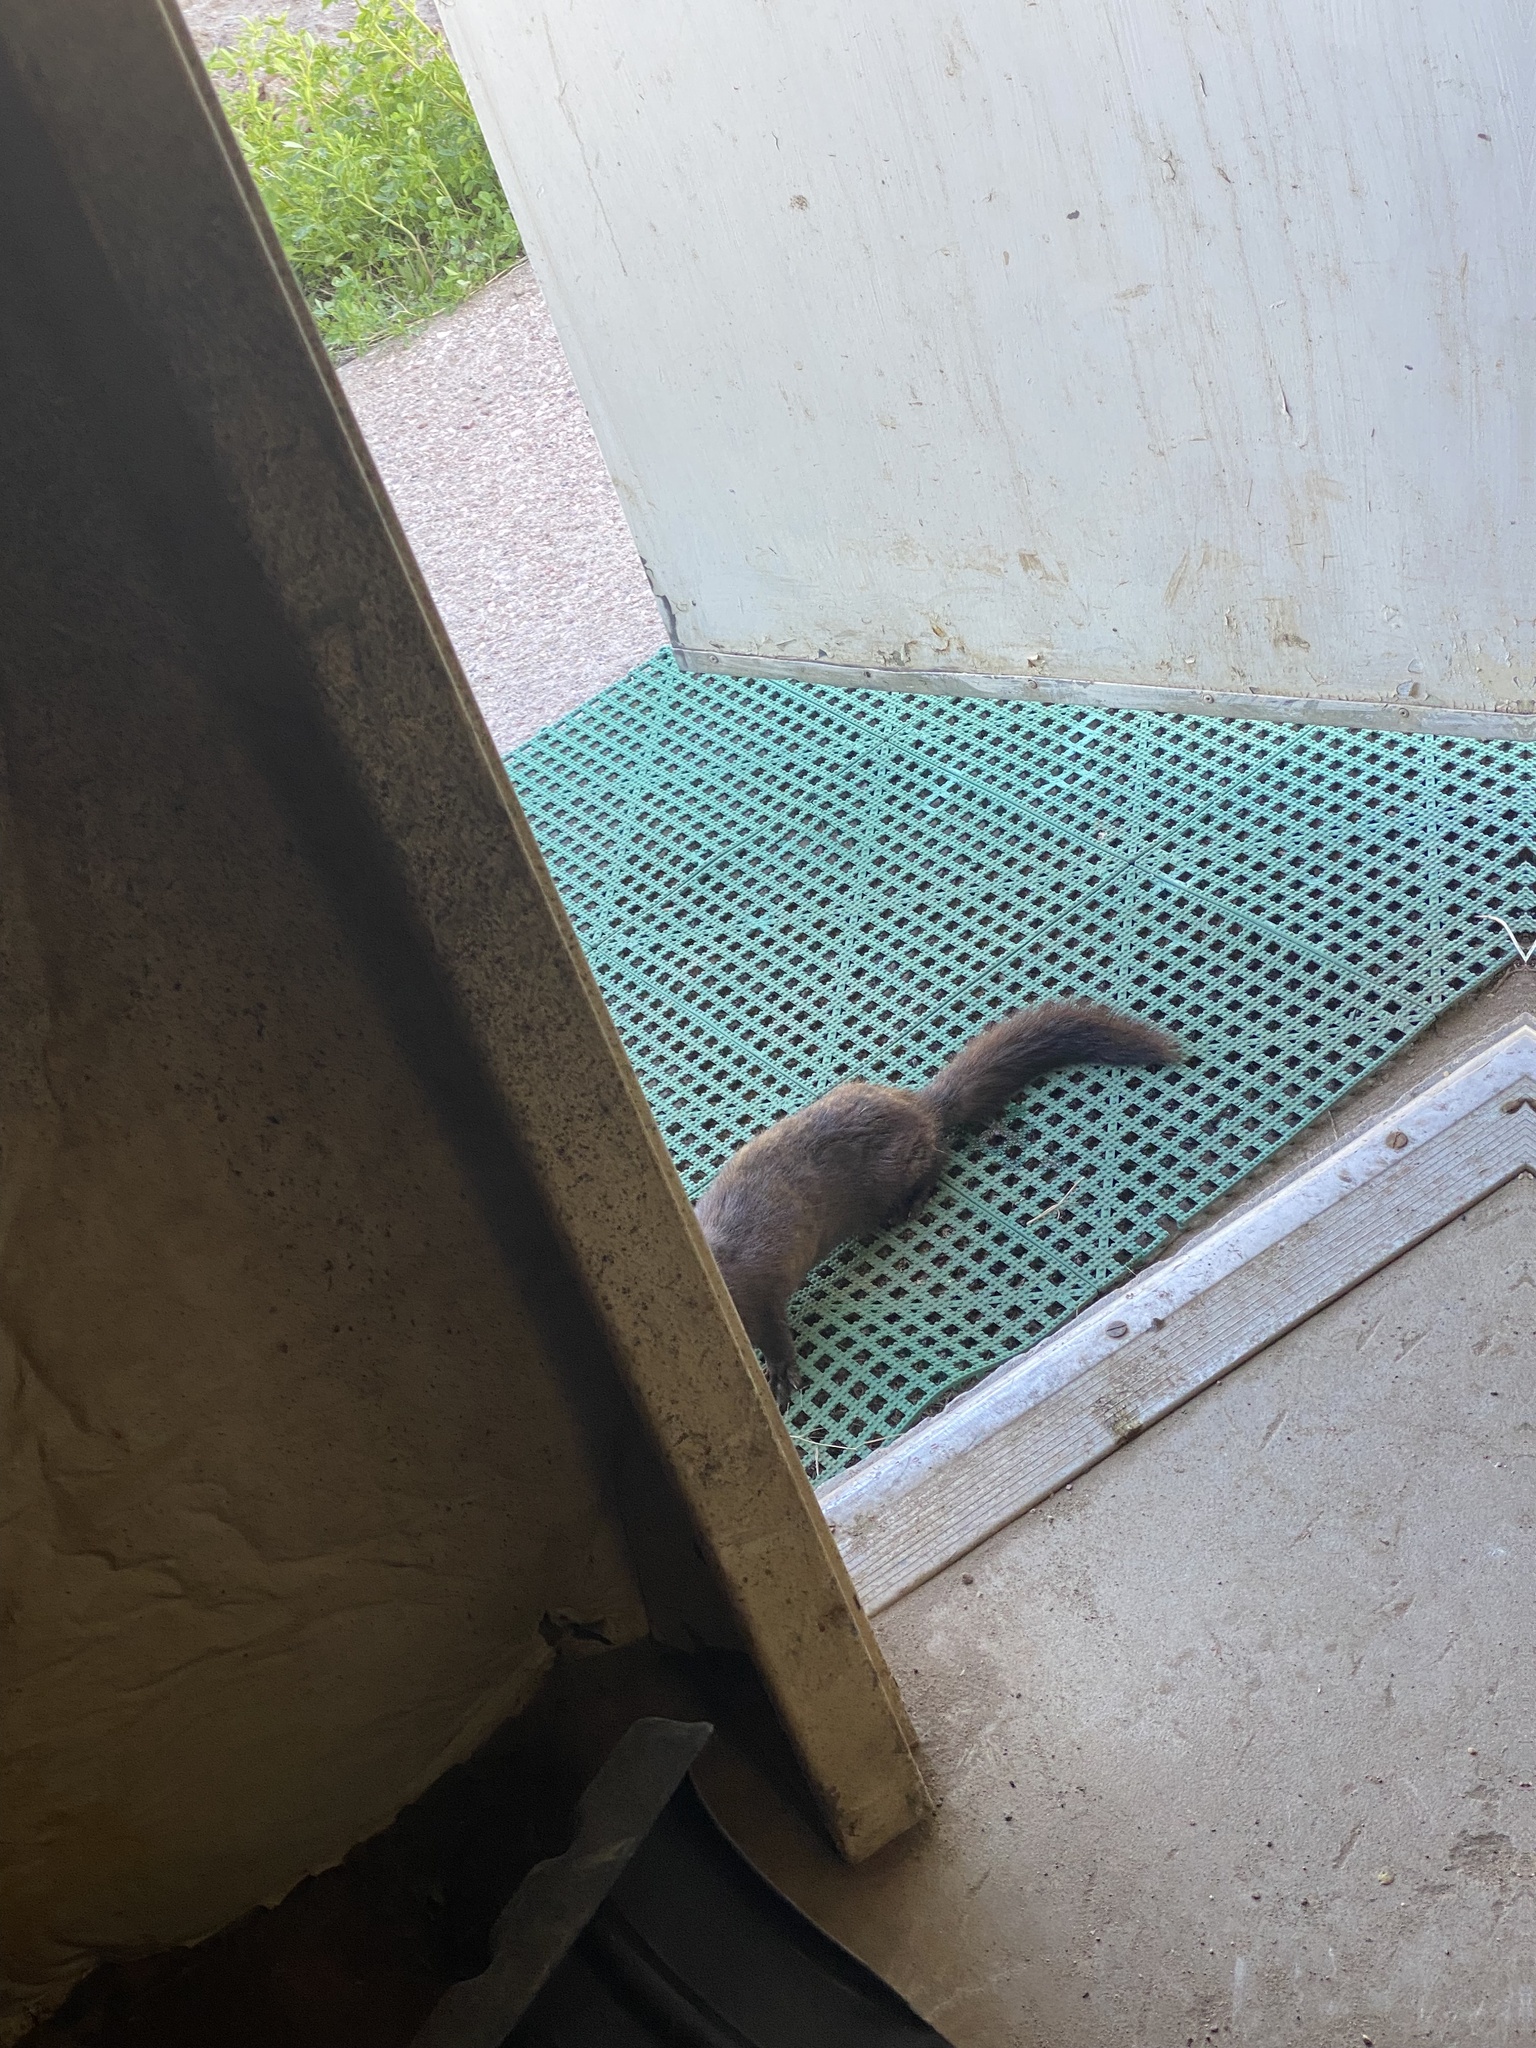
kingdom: Animalia
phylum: Chordata
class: Mammalia
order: Carnivora
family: Mustelidae
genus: Mustela
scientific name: Mustela
